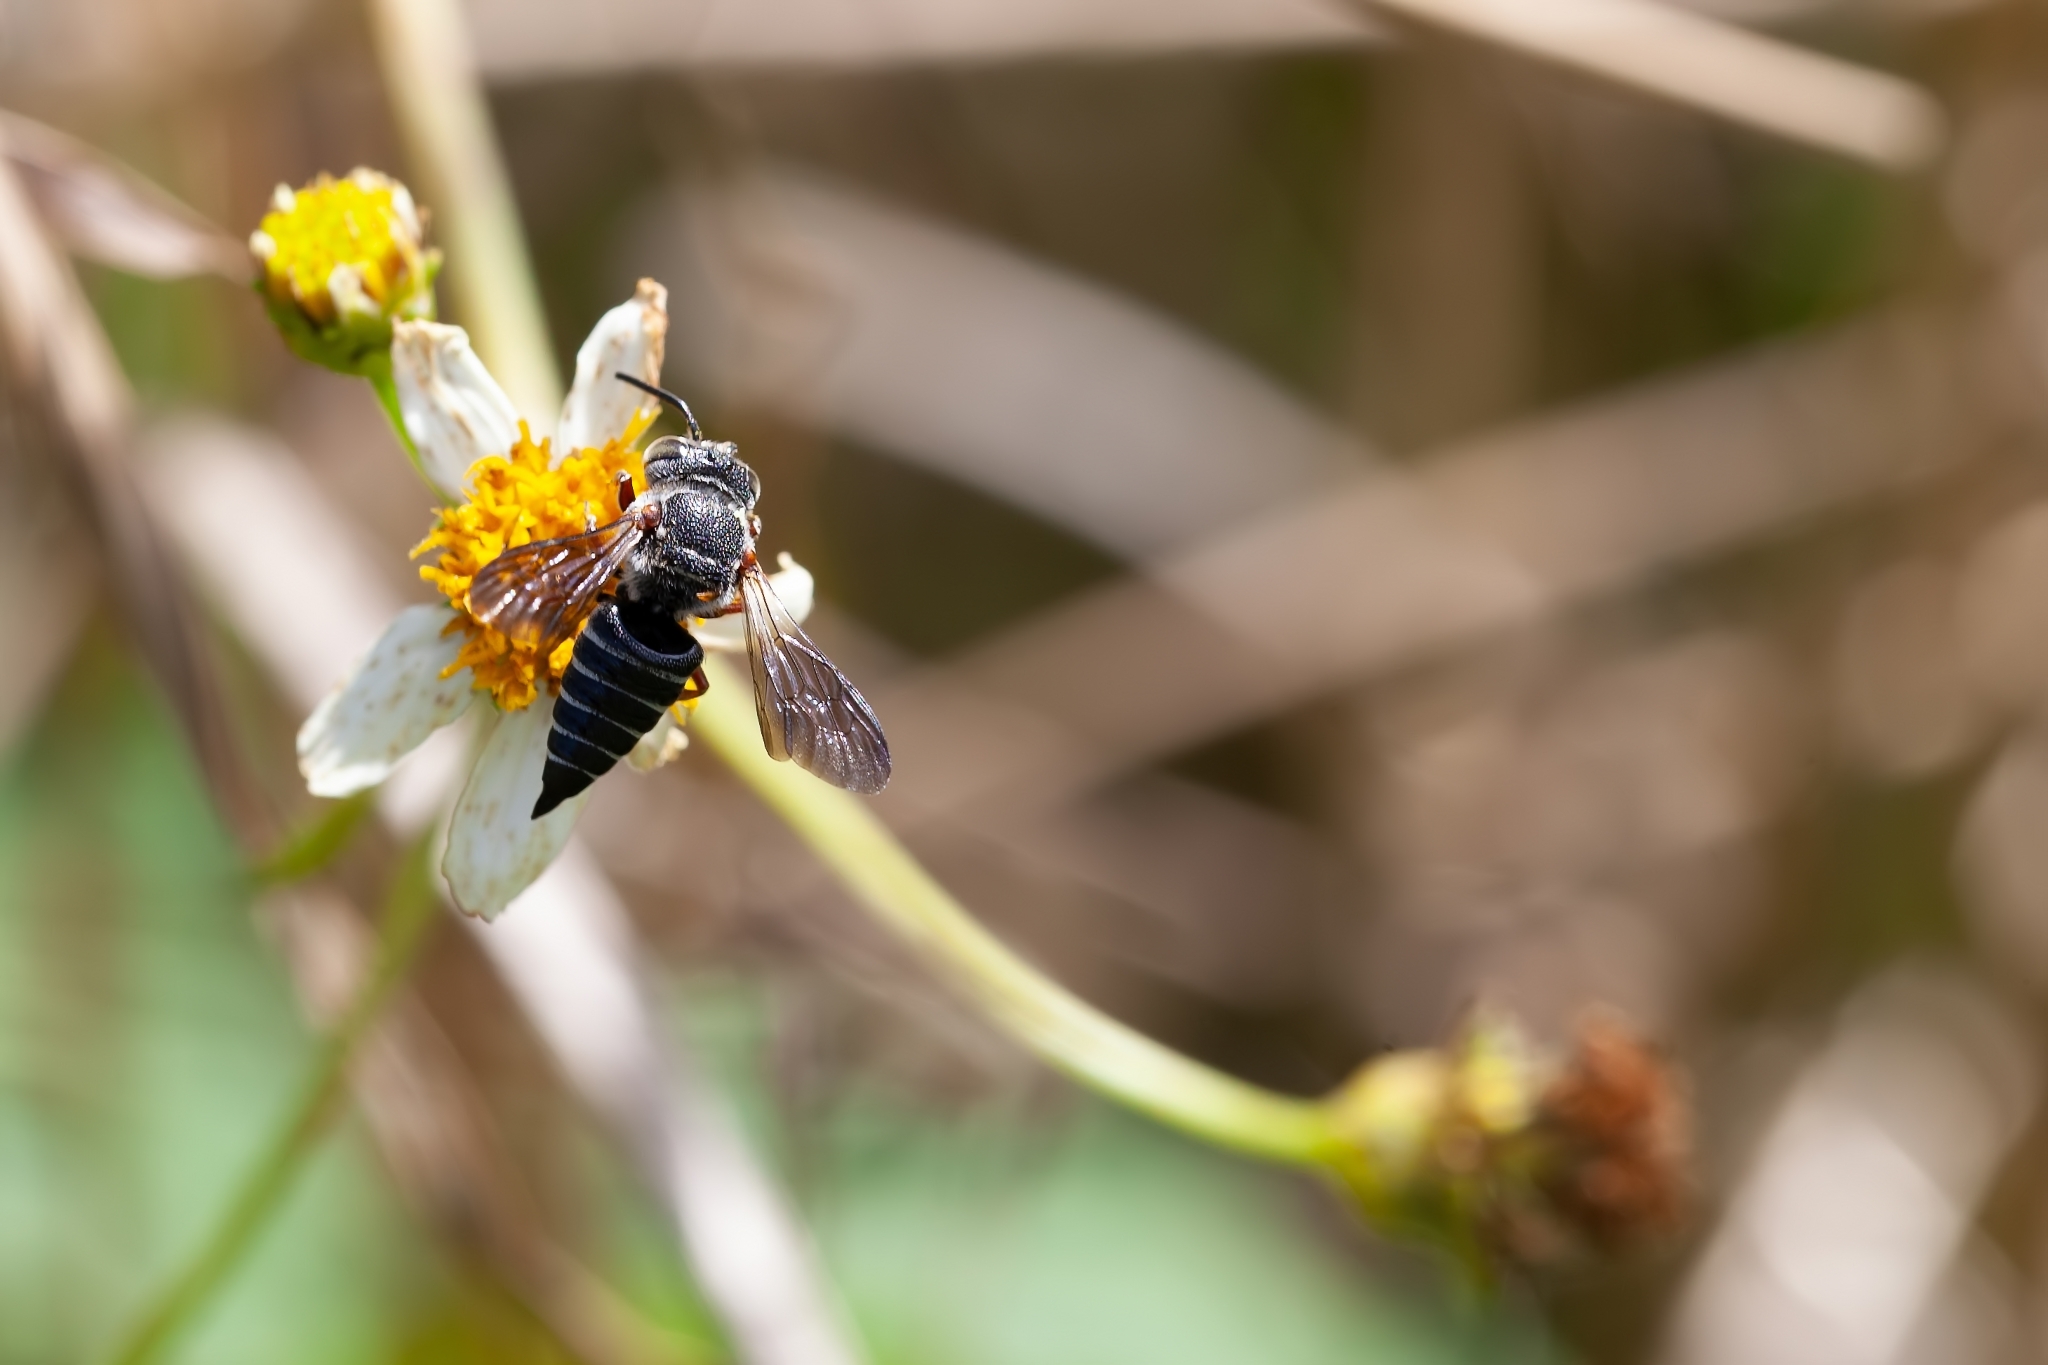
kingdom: Animalia
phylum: Arthropoda
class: Insecta
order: Hymenoptera
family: Megachilidae
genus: Coelioxys
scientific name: Coelioxys octodentatus
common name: Eight-toothed cuckoo leaf-cutter bee
